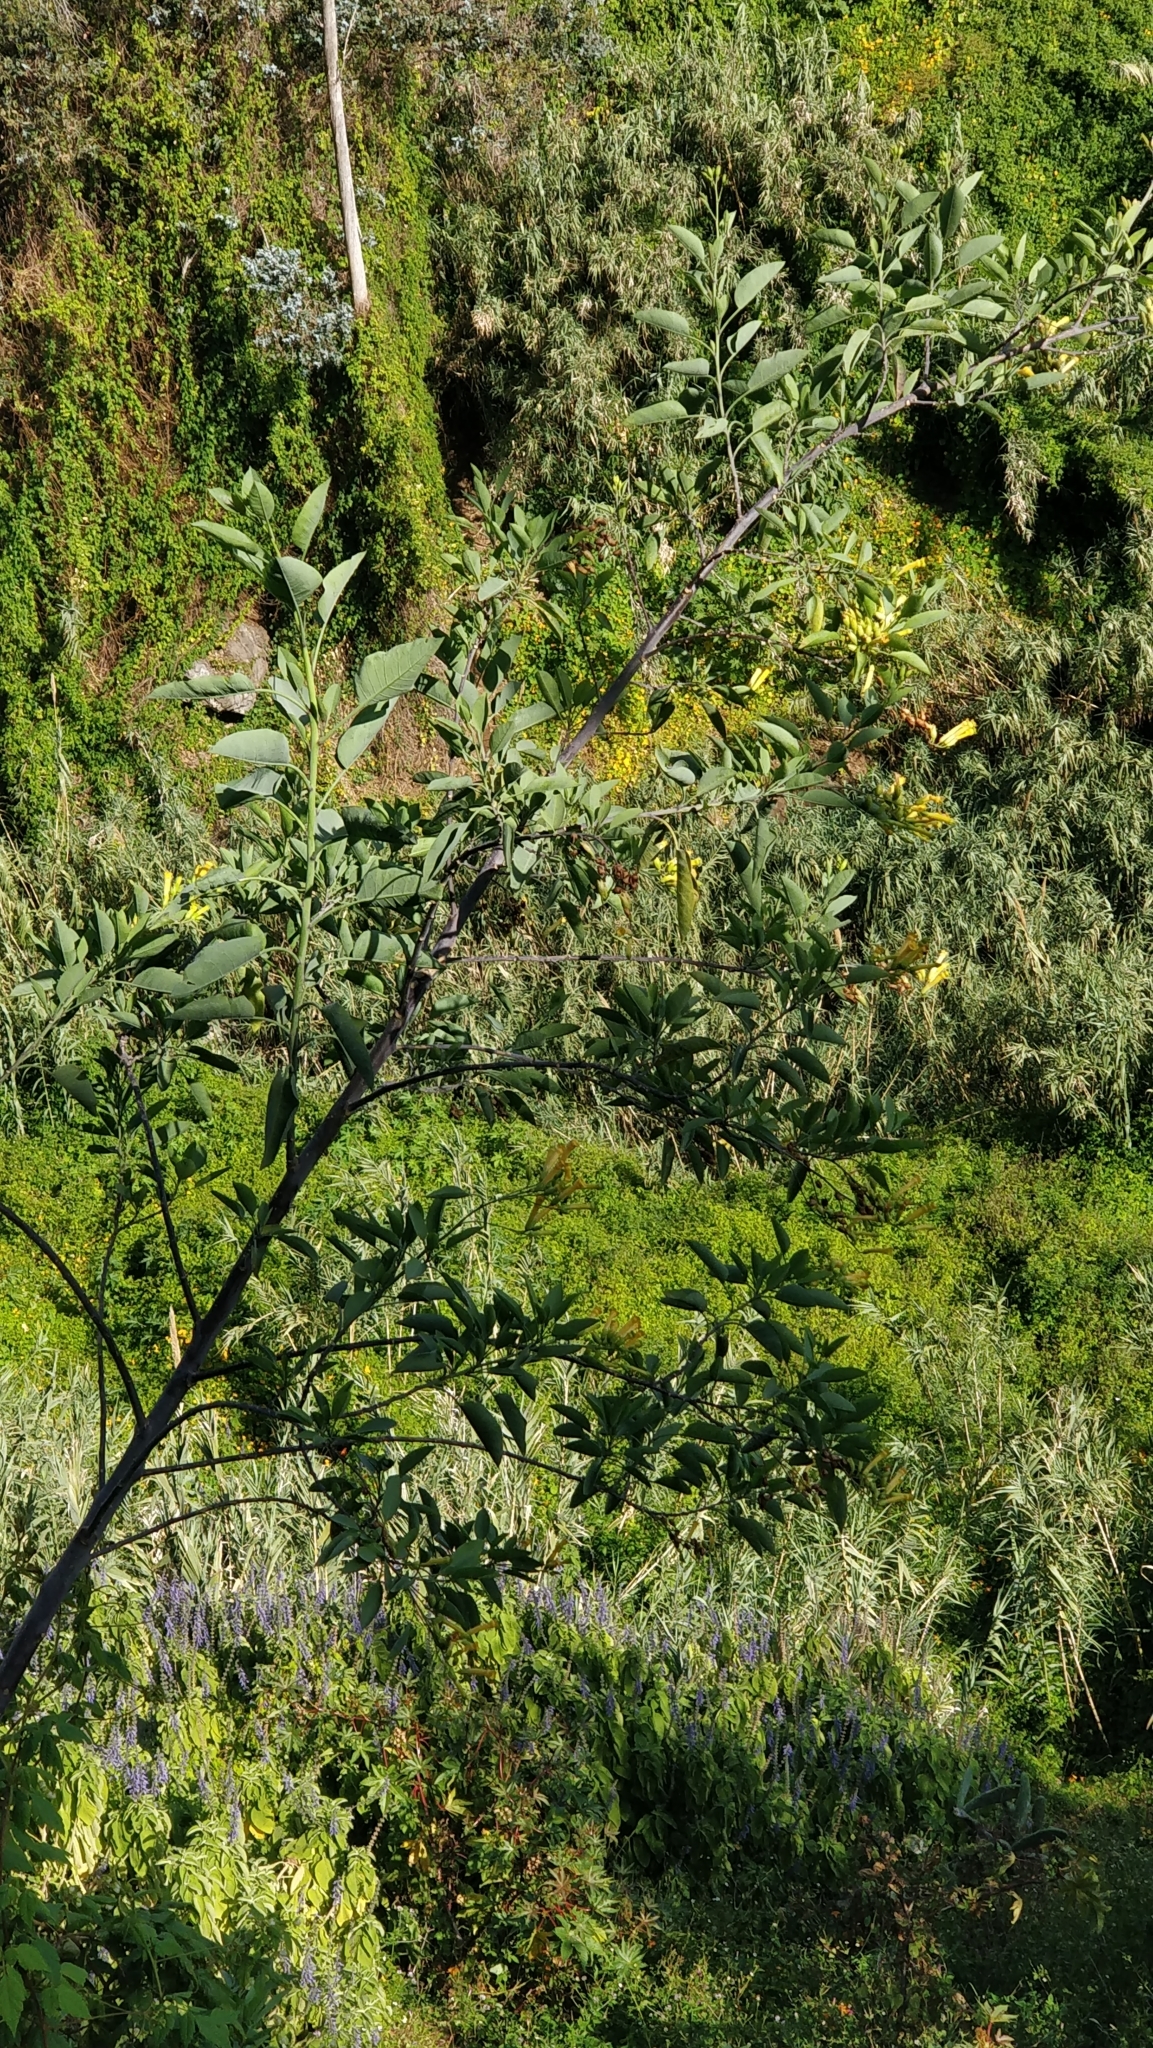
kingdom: Plantae
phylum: Tracheophyta
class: Magnoliopsida
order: Solanales
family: Solanaceae
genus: Nicotiana
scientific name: Nicotiana glauca
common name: Tree tobacco
